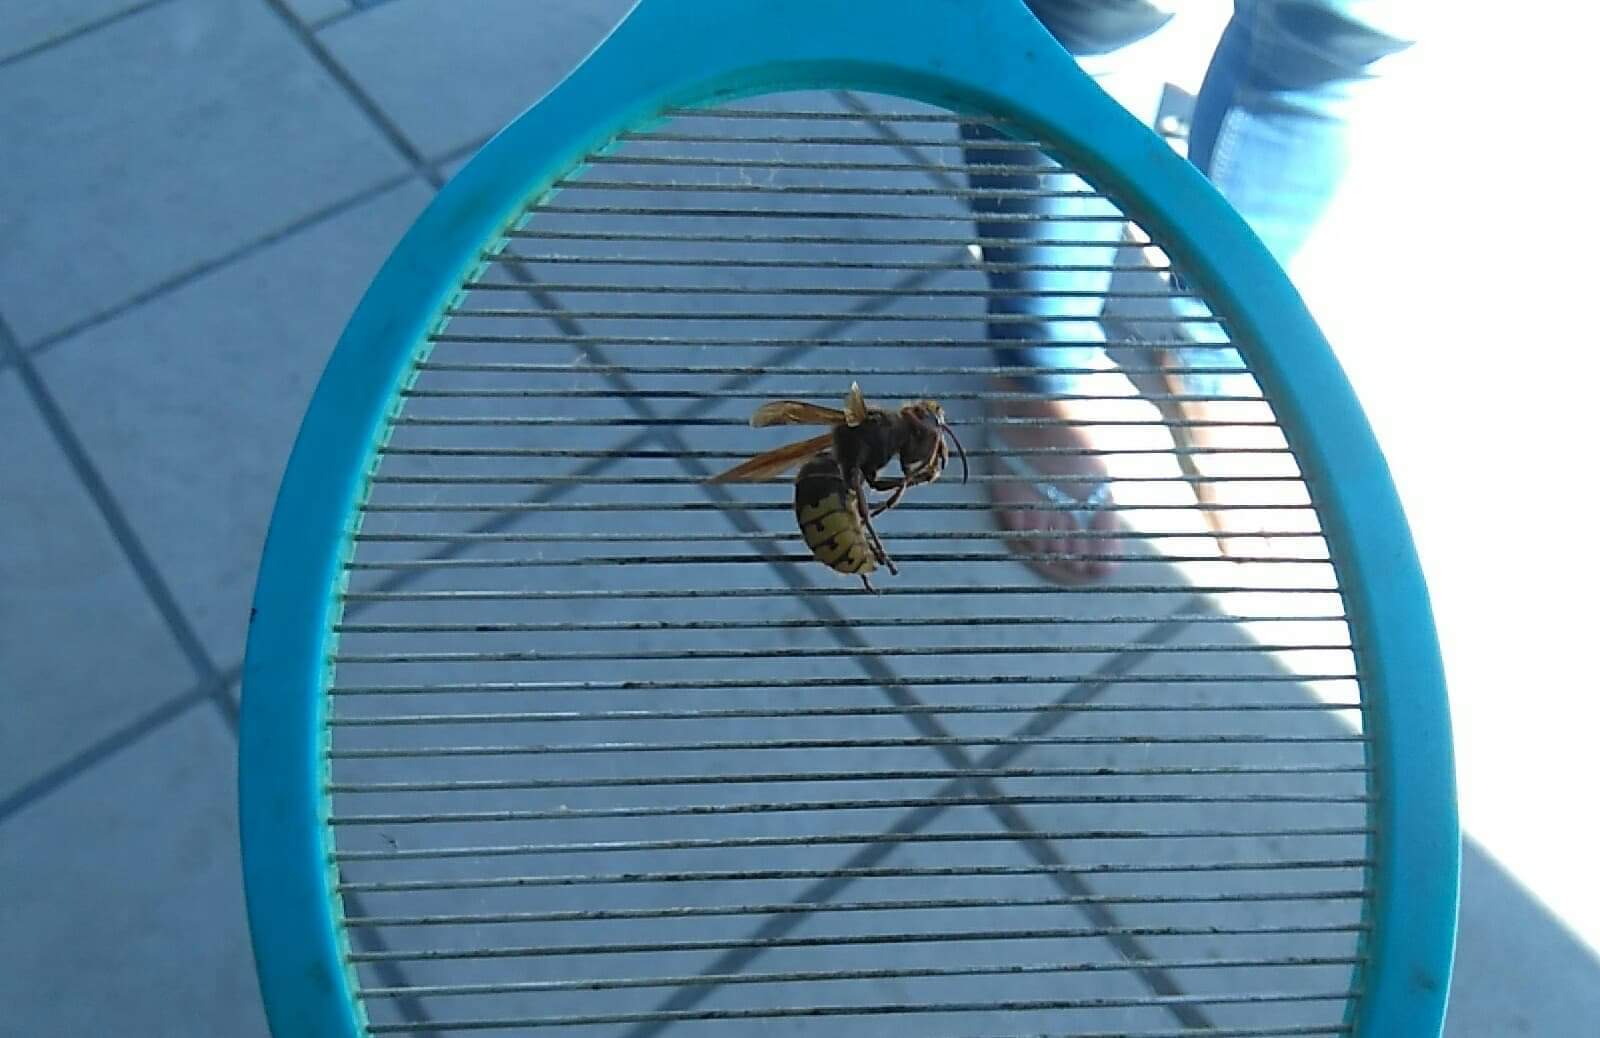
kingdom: Animalia
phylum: Arthropoda
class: Insecta
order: Hymenoptera
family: Vespidae
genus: Vespa
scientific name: Vespa crabro
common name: Hornet
